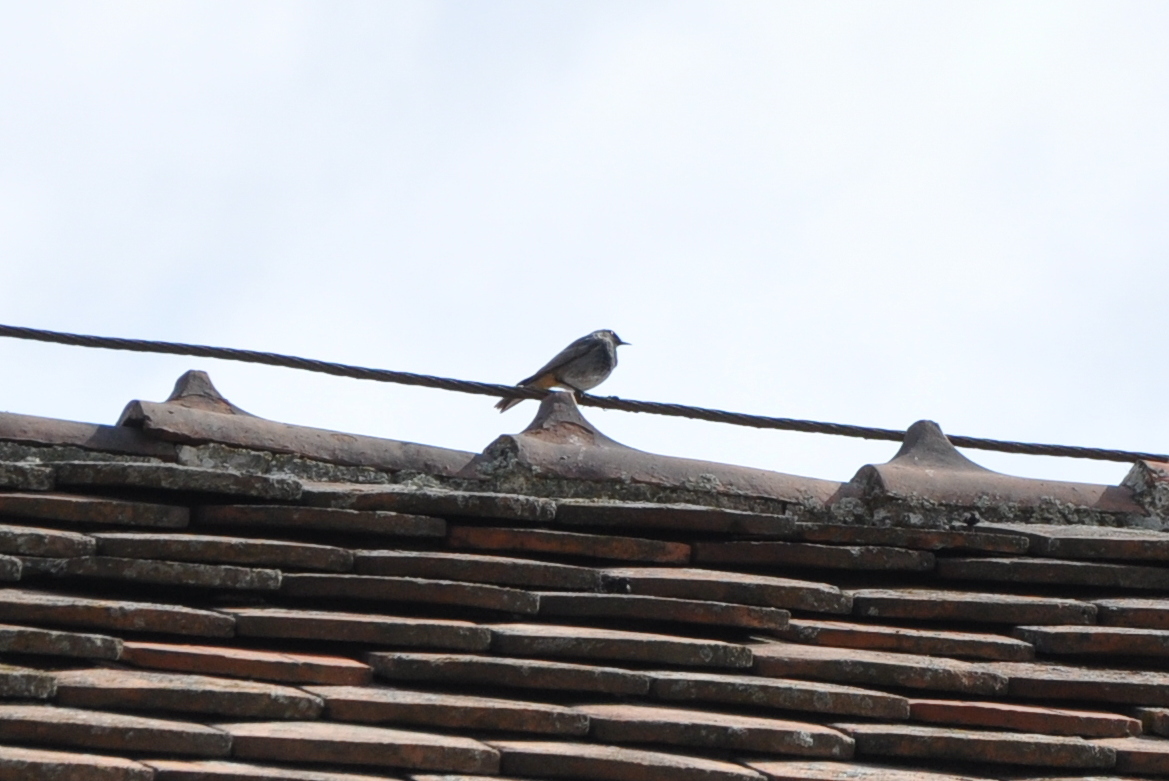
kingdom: Animalia
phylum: Chordata
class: Aves
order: Passeriformes
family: Muscicapidae
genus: Phoenicurus
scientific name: Phoenicurus ochruros
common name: Black redstart
